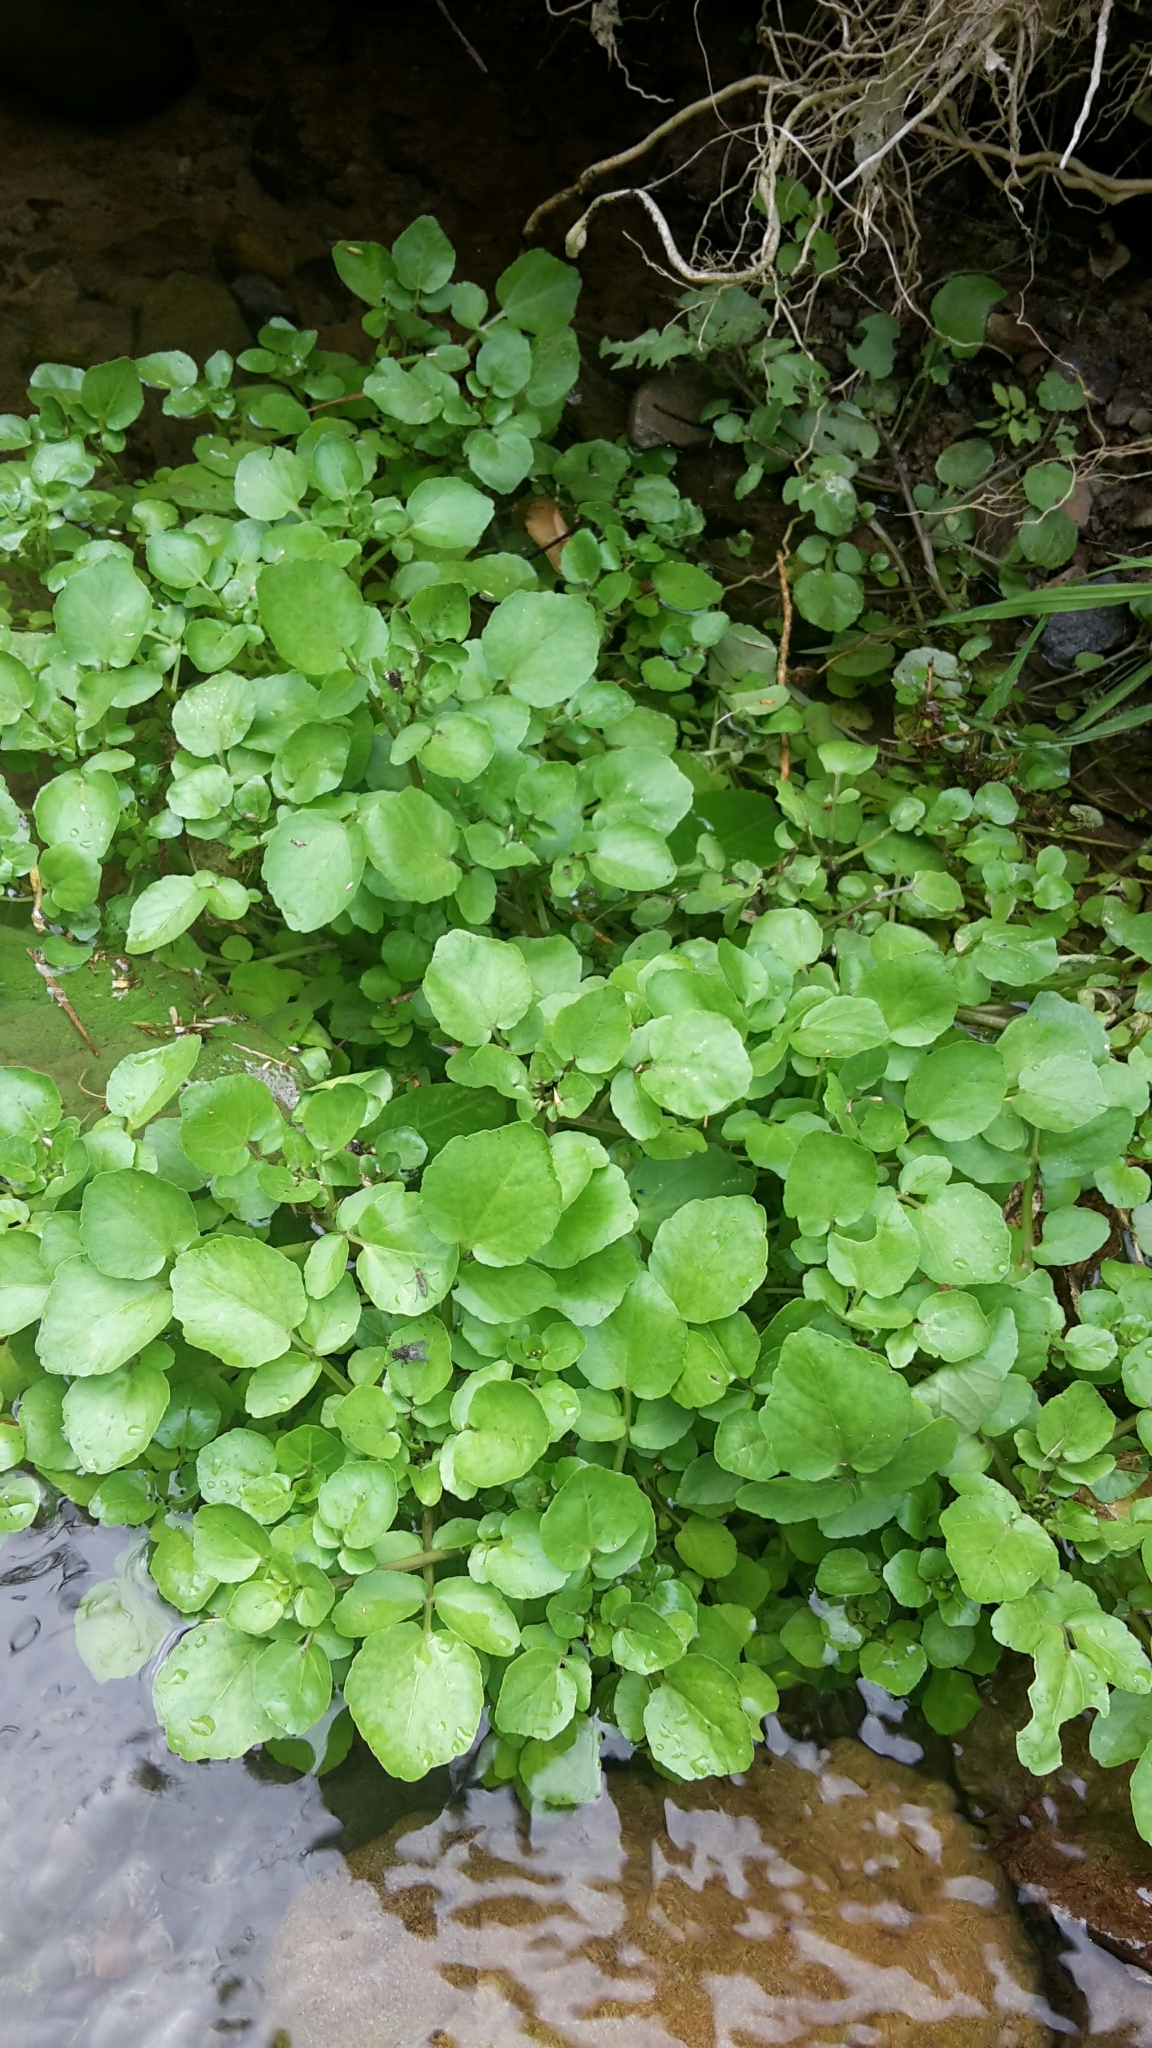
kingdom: Plantae
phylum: Tracheophyta
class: Magnoliopsida
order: Brassicales
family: Brassicaceae
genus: Nasturtium
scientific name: Nasturtium officinale
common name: Watercress
